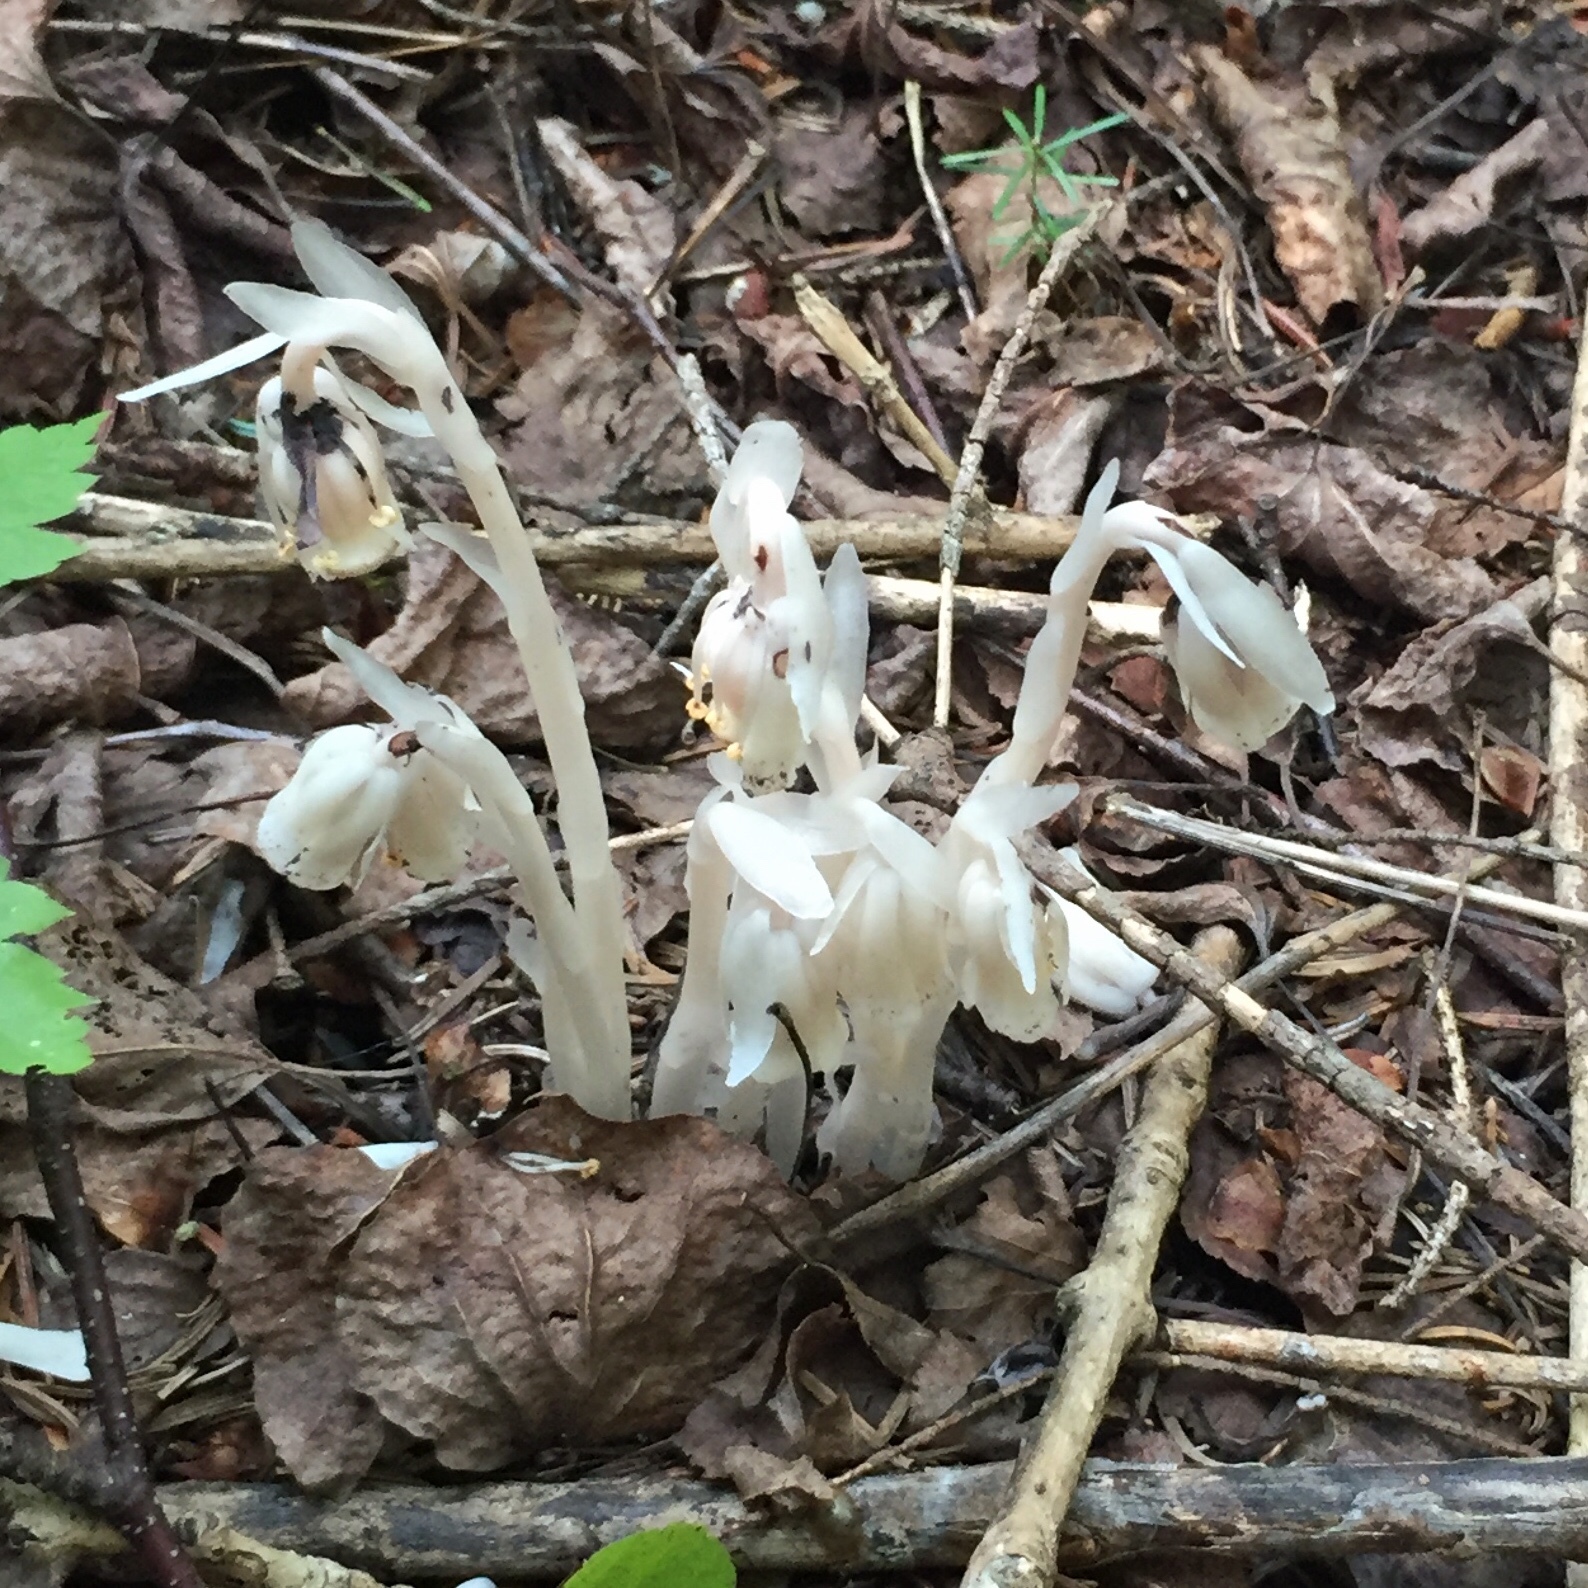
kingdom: Plantae
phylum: Tracheophyta
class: Magnoliopsida
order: Ericales
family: Ericaceae
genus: Monotropa
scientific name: Monotropa uniflora
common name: Convulsion root
